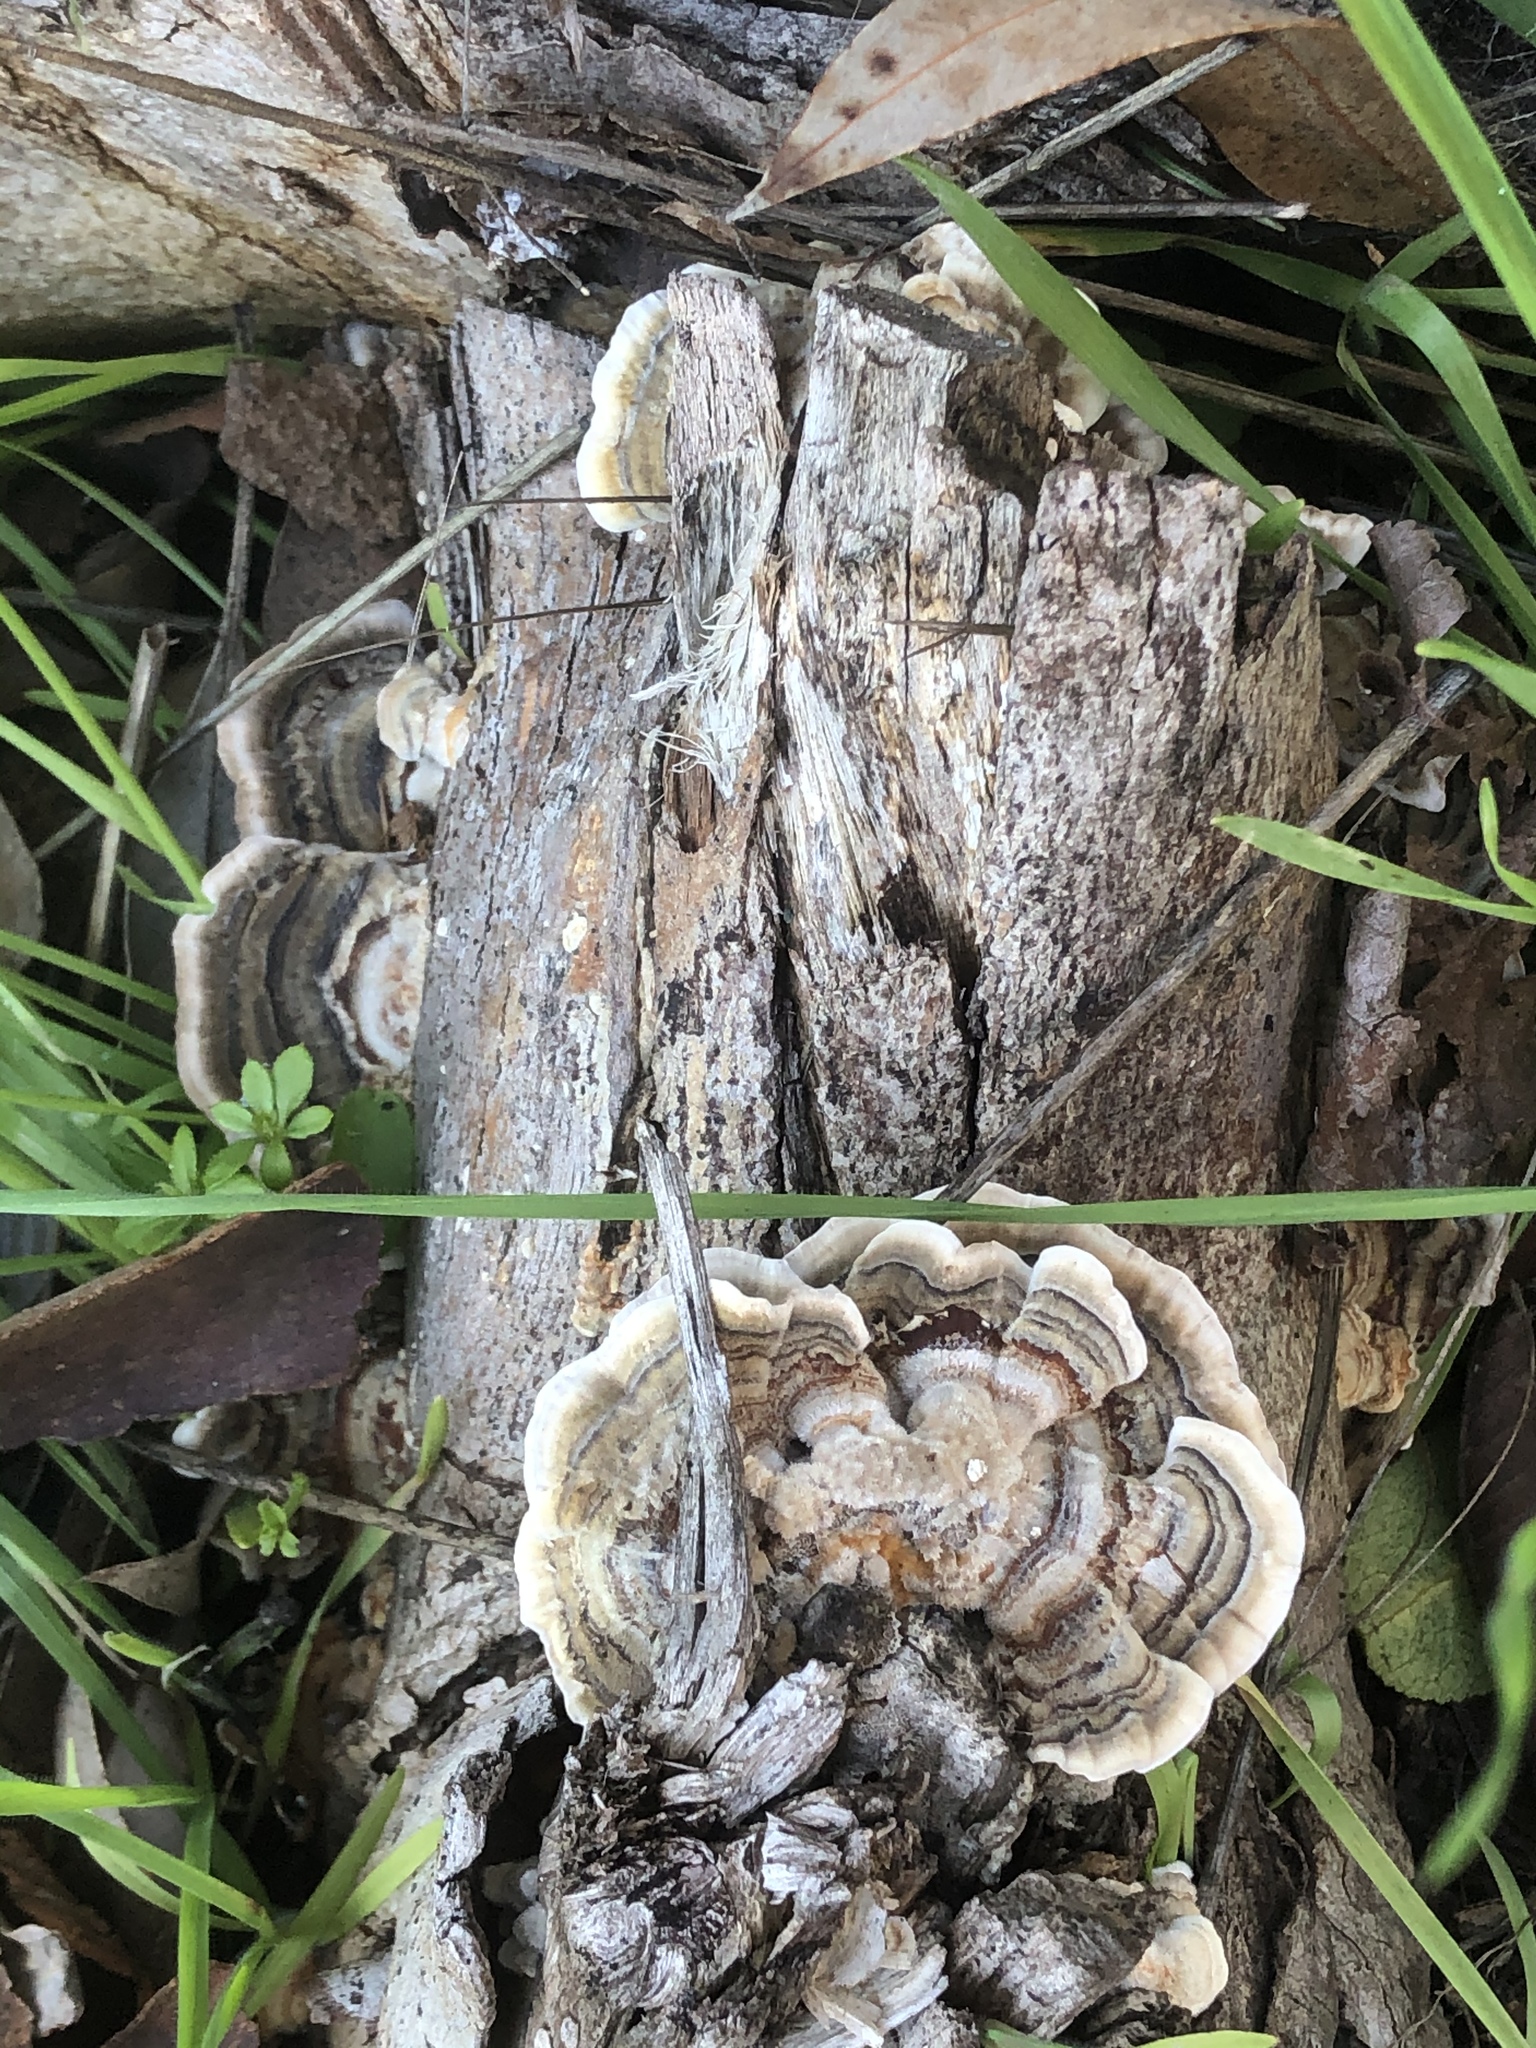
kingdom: Fungi
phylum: Basidiomycota
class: Agaricomycetes
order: Polyporales
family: Polyporaceae
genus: Trametes
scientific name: Trametes versicolor
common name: Turkeytail
